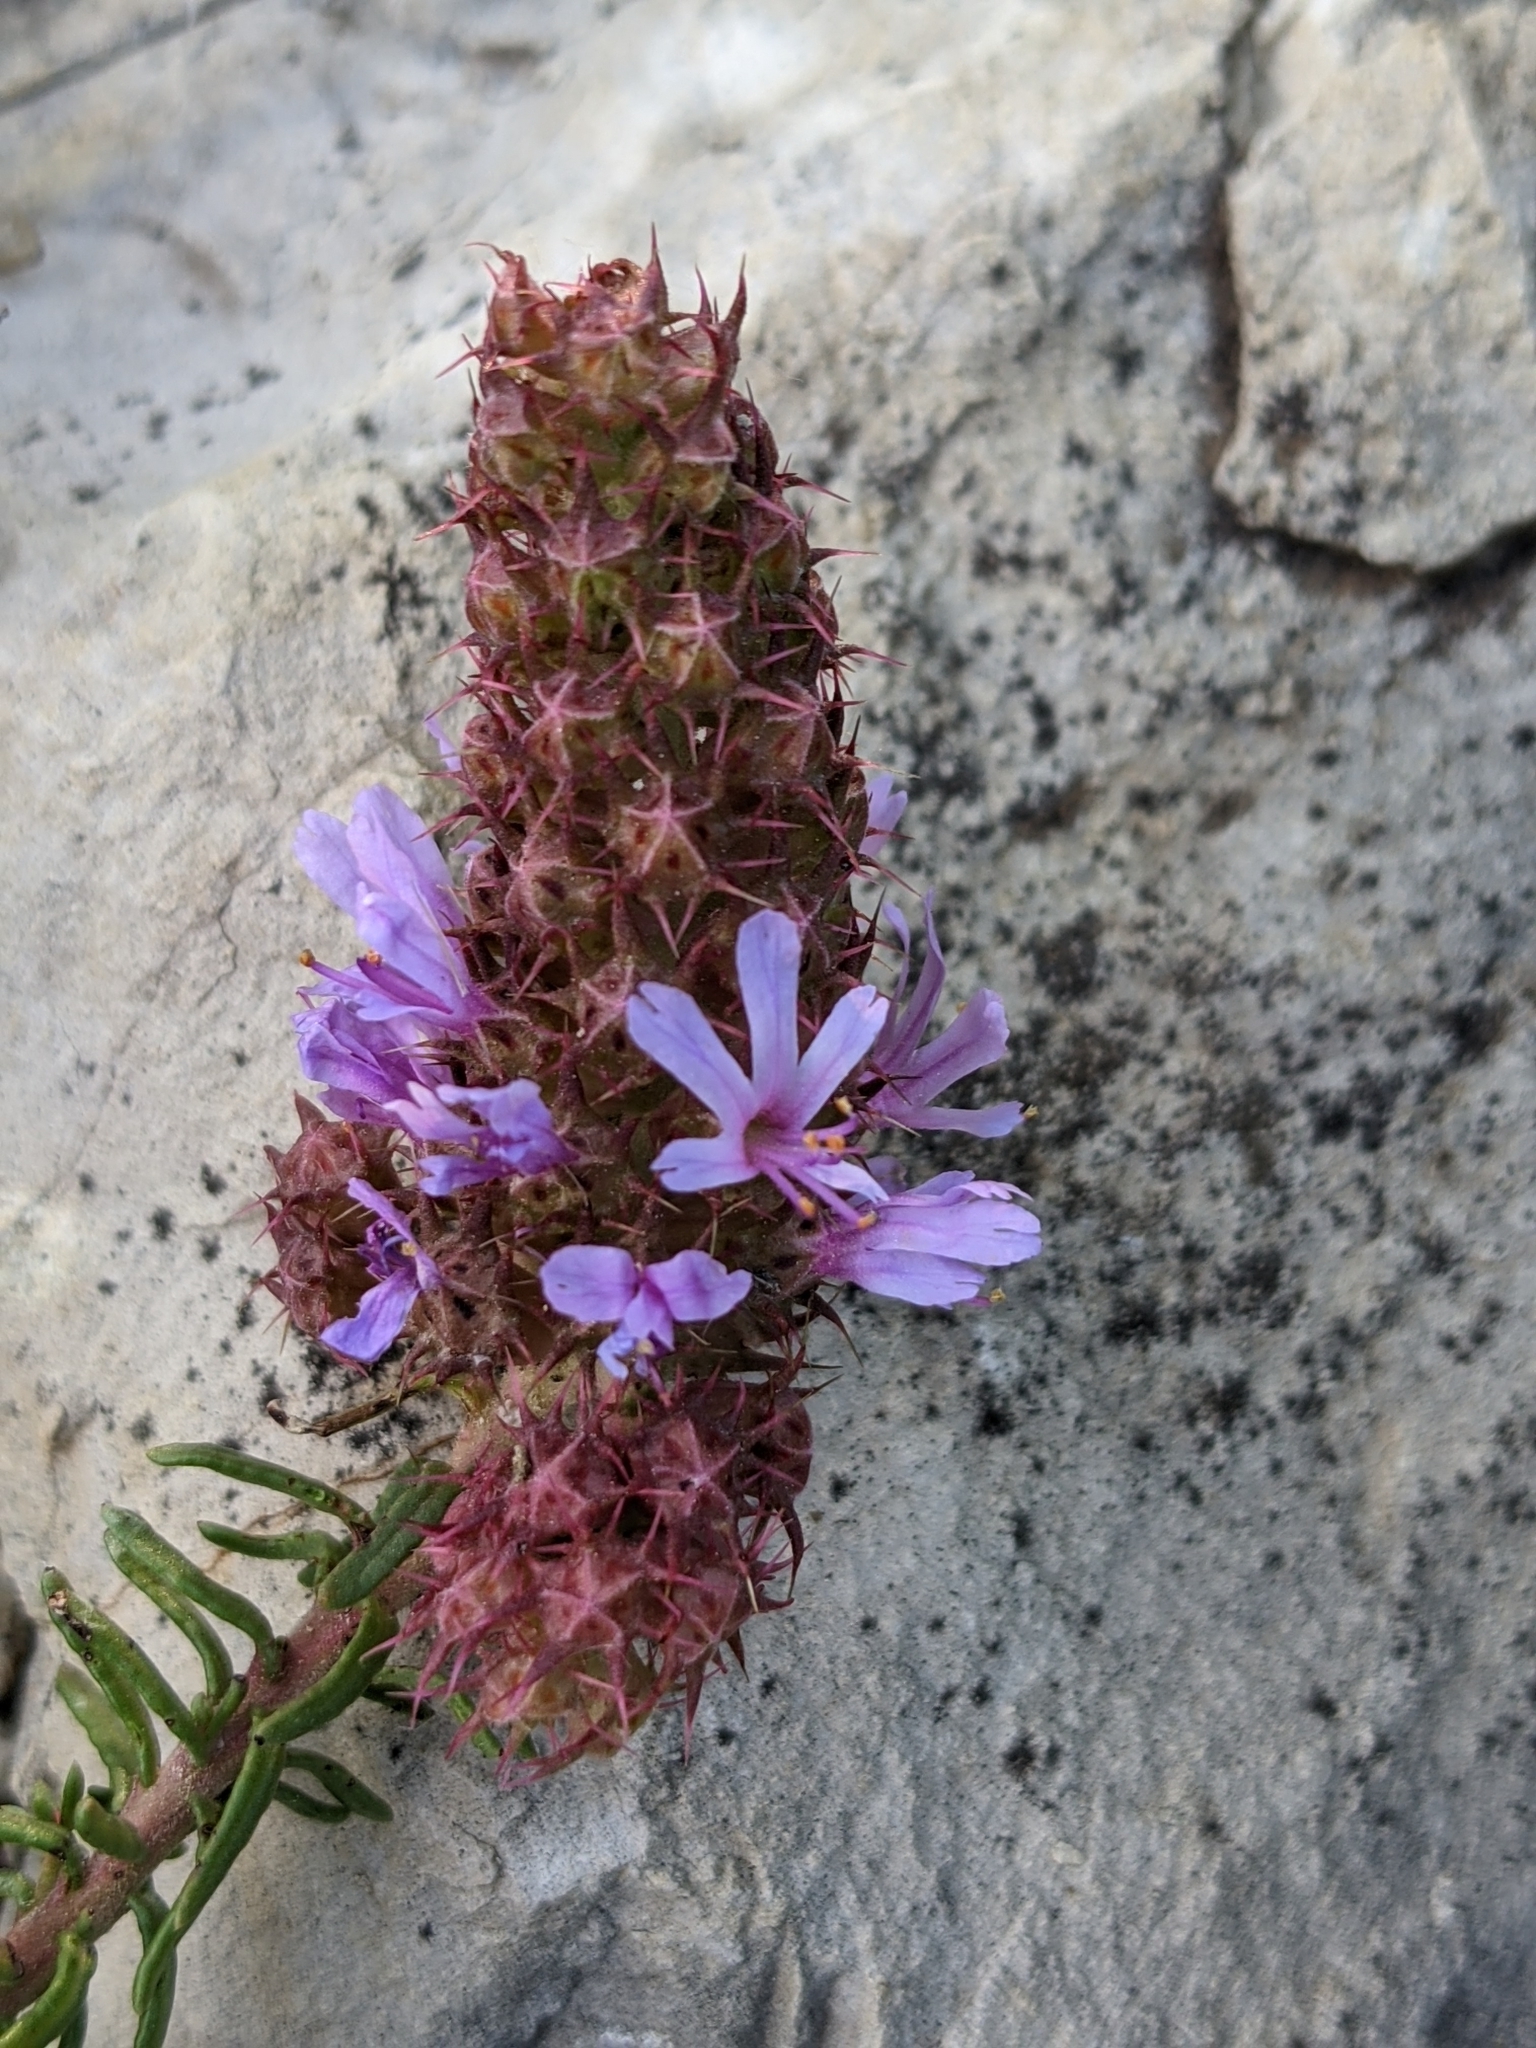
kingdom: Plantae
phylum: Tracheophyta
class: Magnoliopsida
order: Ericales
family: Primulaceae
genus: Coris
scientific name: Coris monspeliensis
